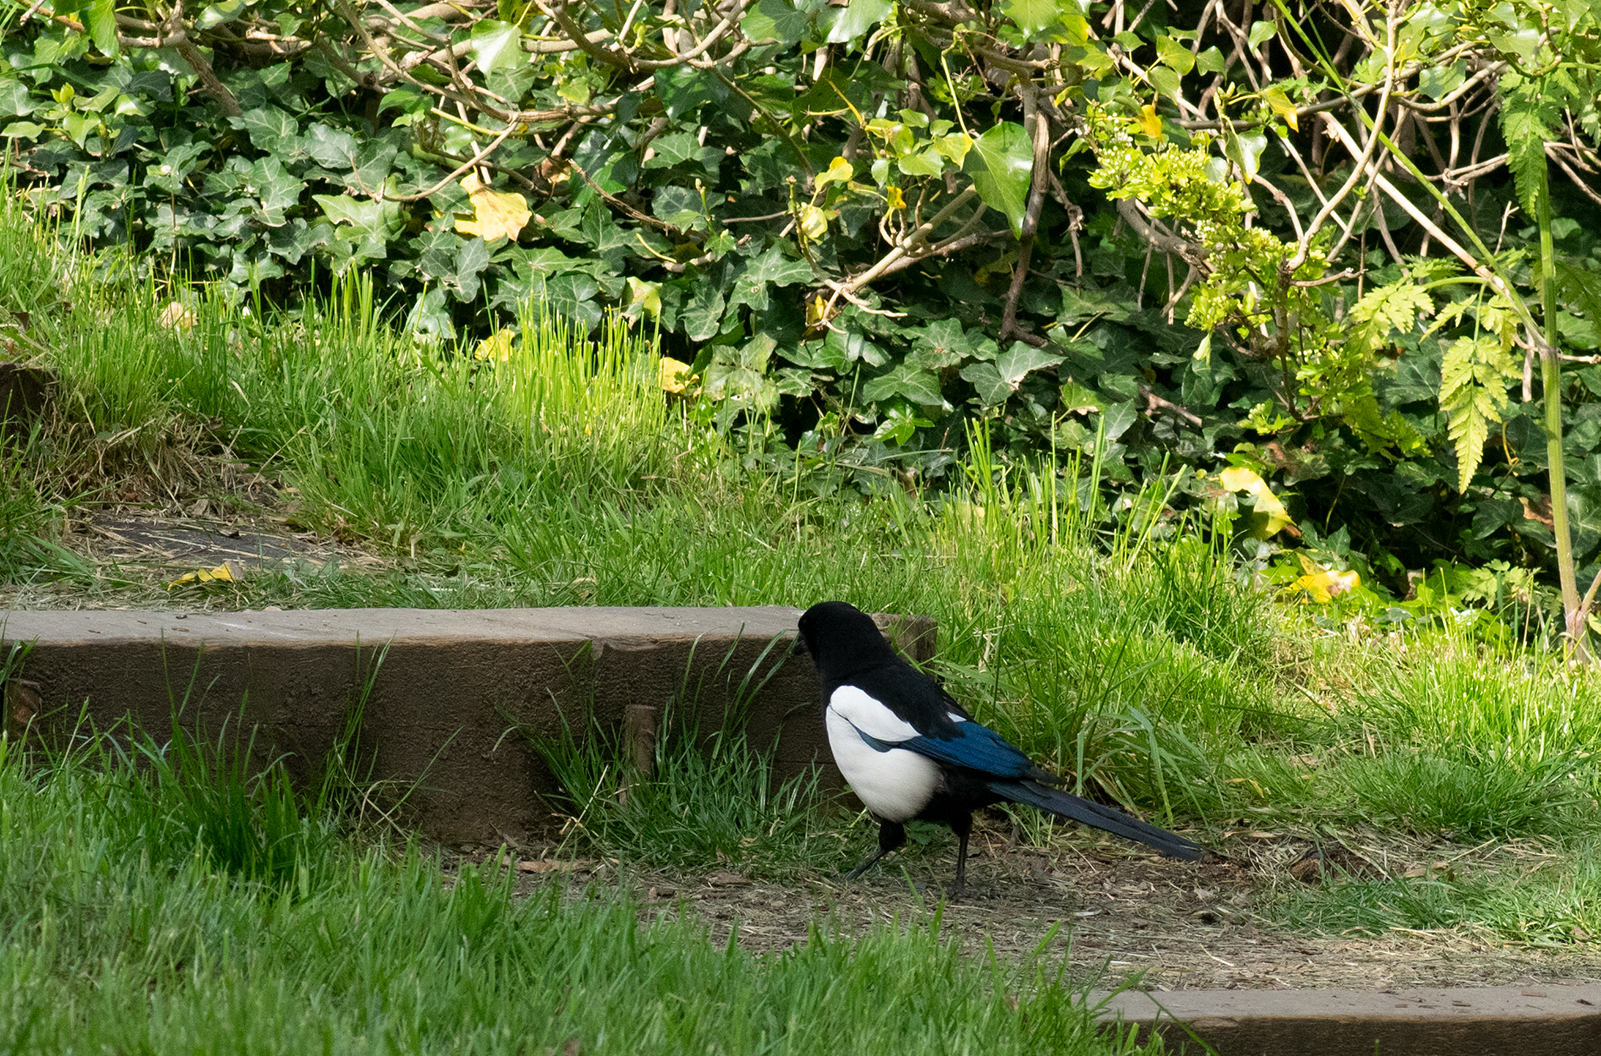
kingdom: Animalia
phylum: Chordata
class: Aves
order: Passeriformes
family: Corvidae
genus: Pica
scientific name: Pica pica
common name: Eurasian magpie
